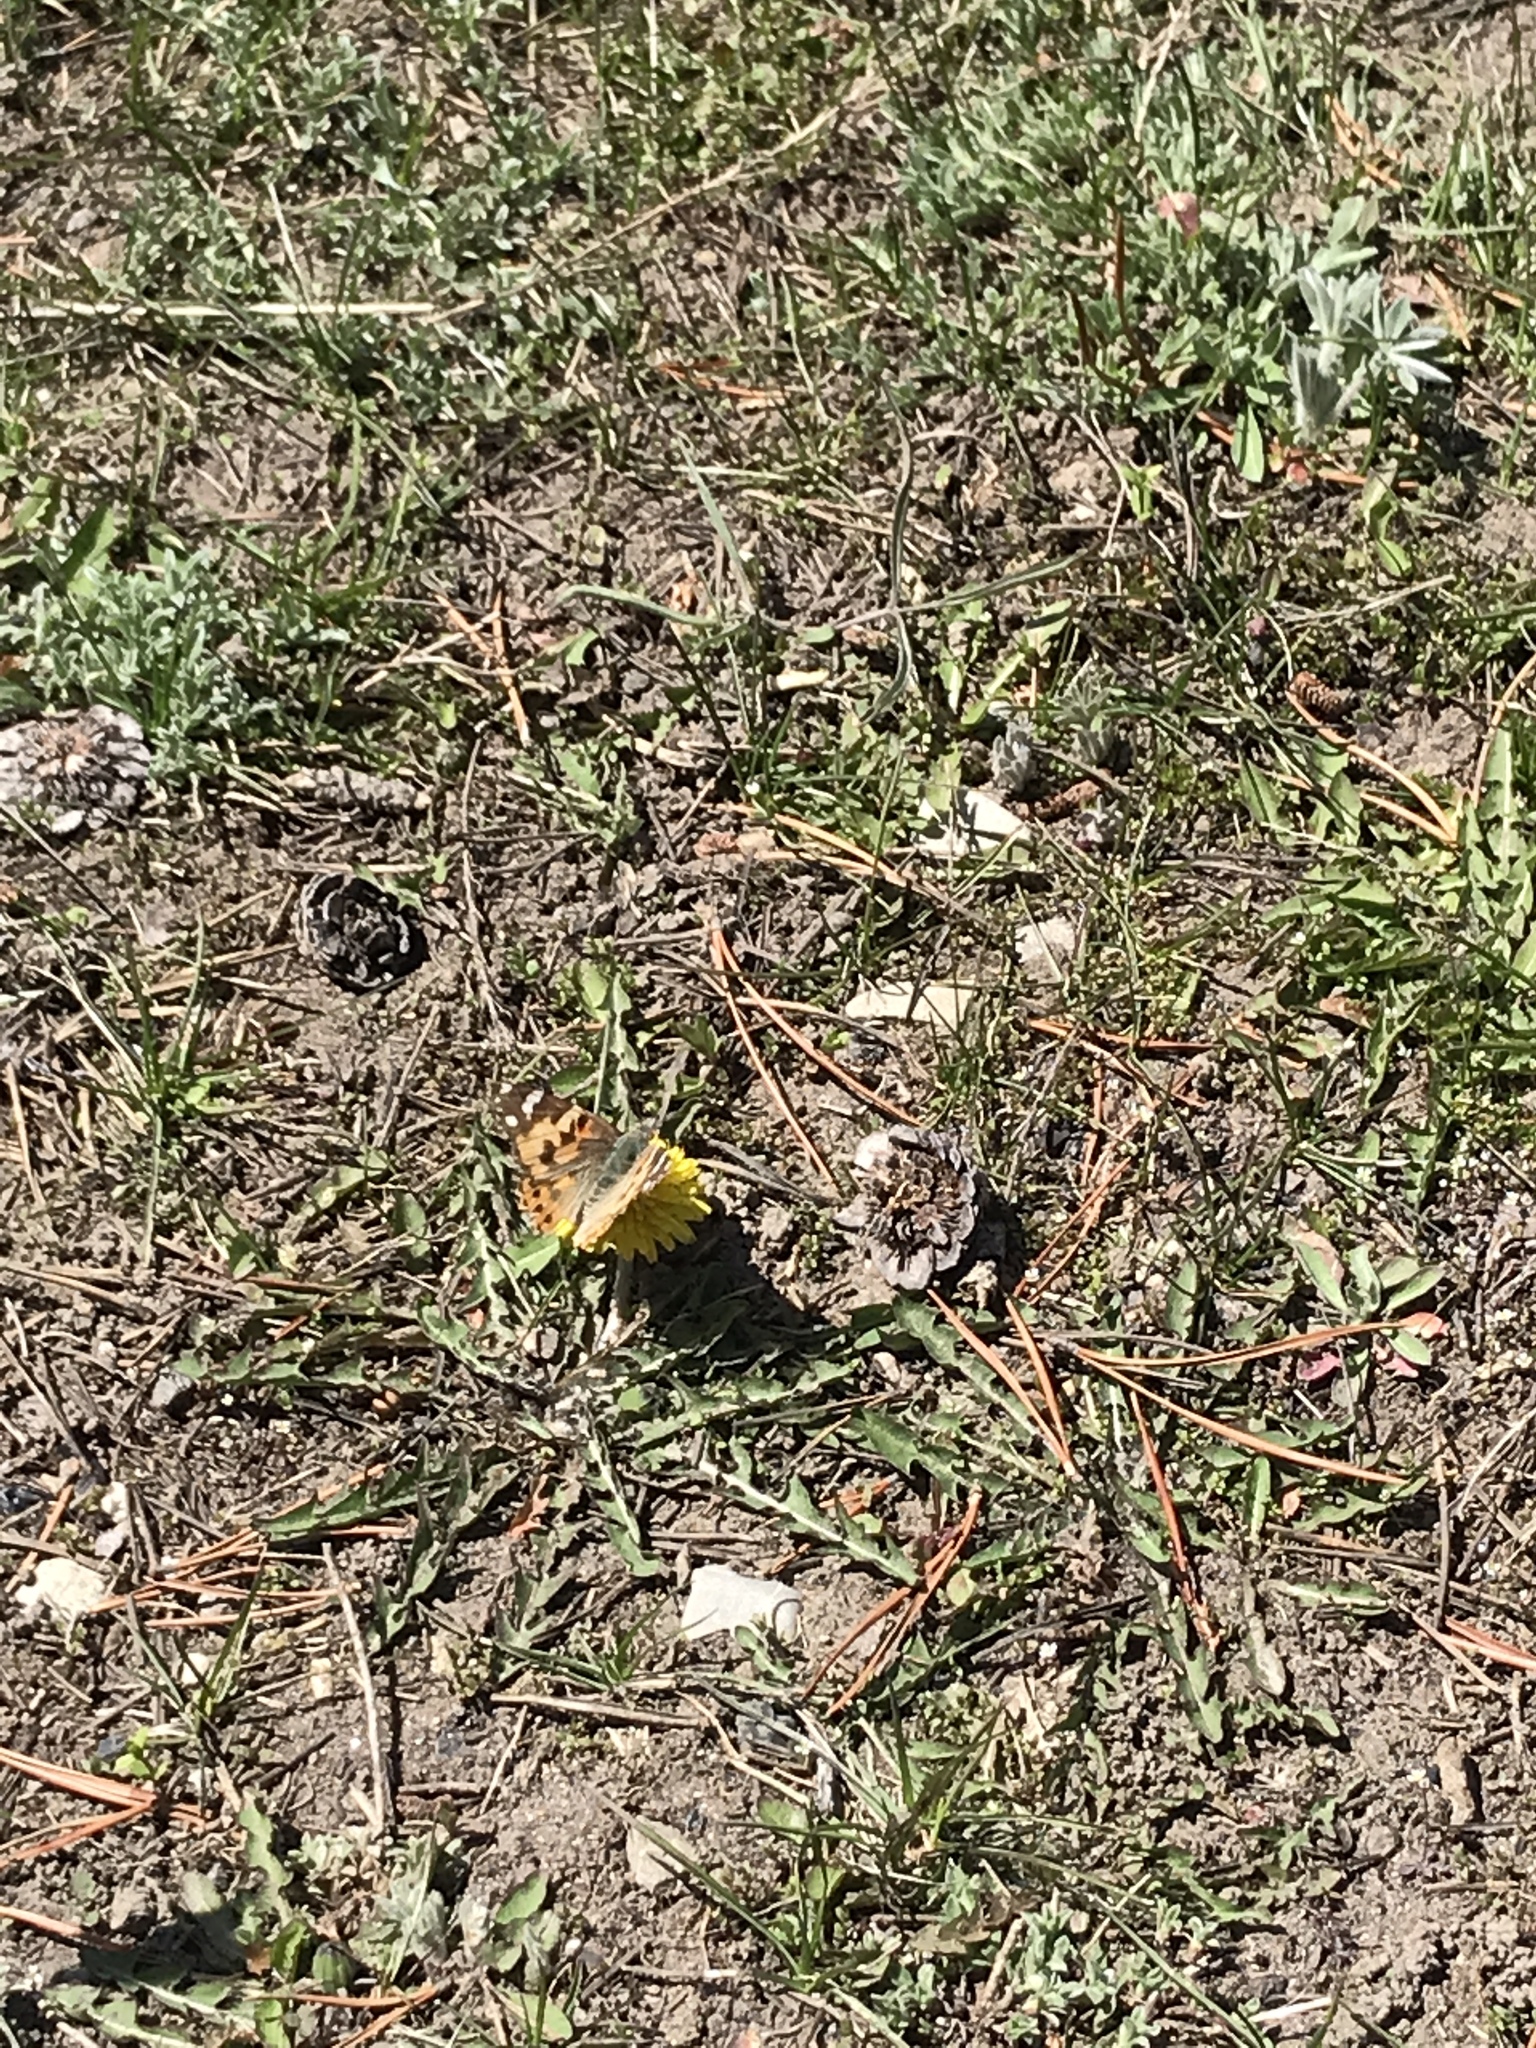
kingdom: Animalia
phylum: Arthropoda
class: Insecta
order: Lepidoptera
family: Nymphalidae
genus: Vanessa
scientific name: Vanessa cardui
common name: Painted lady
